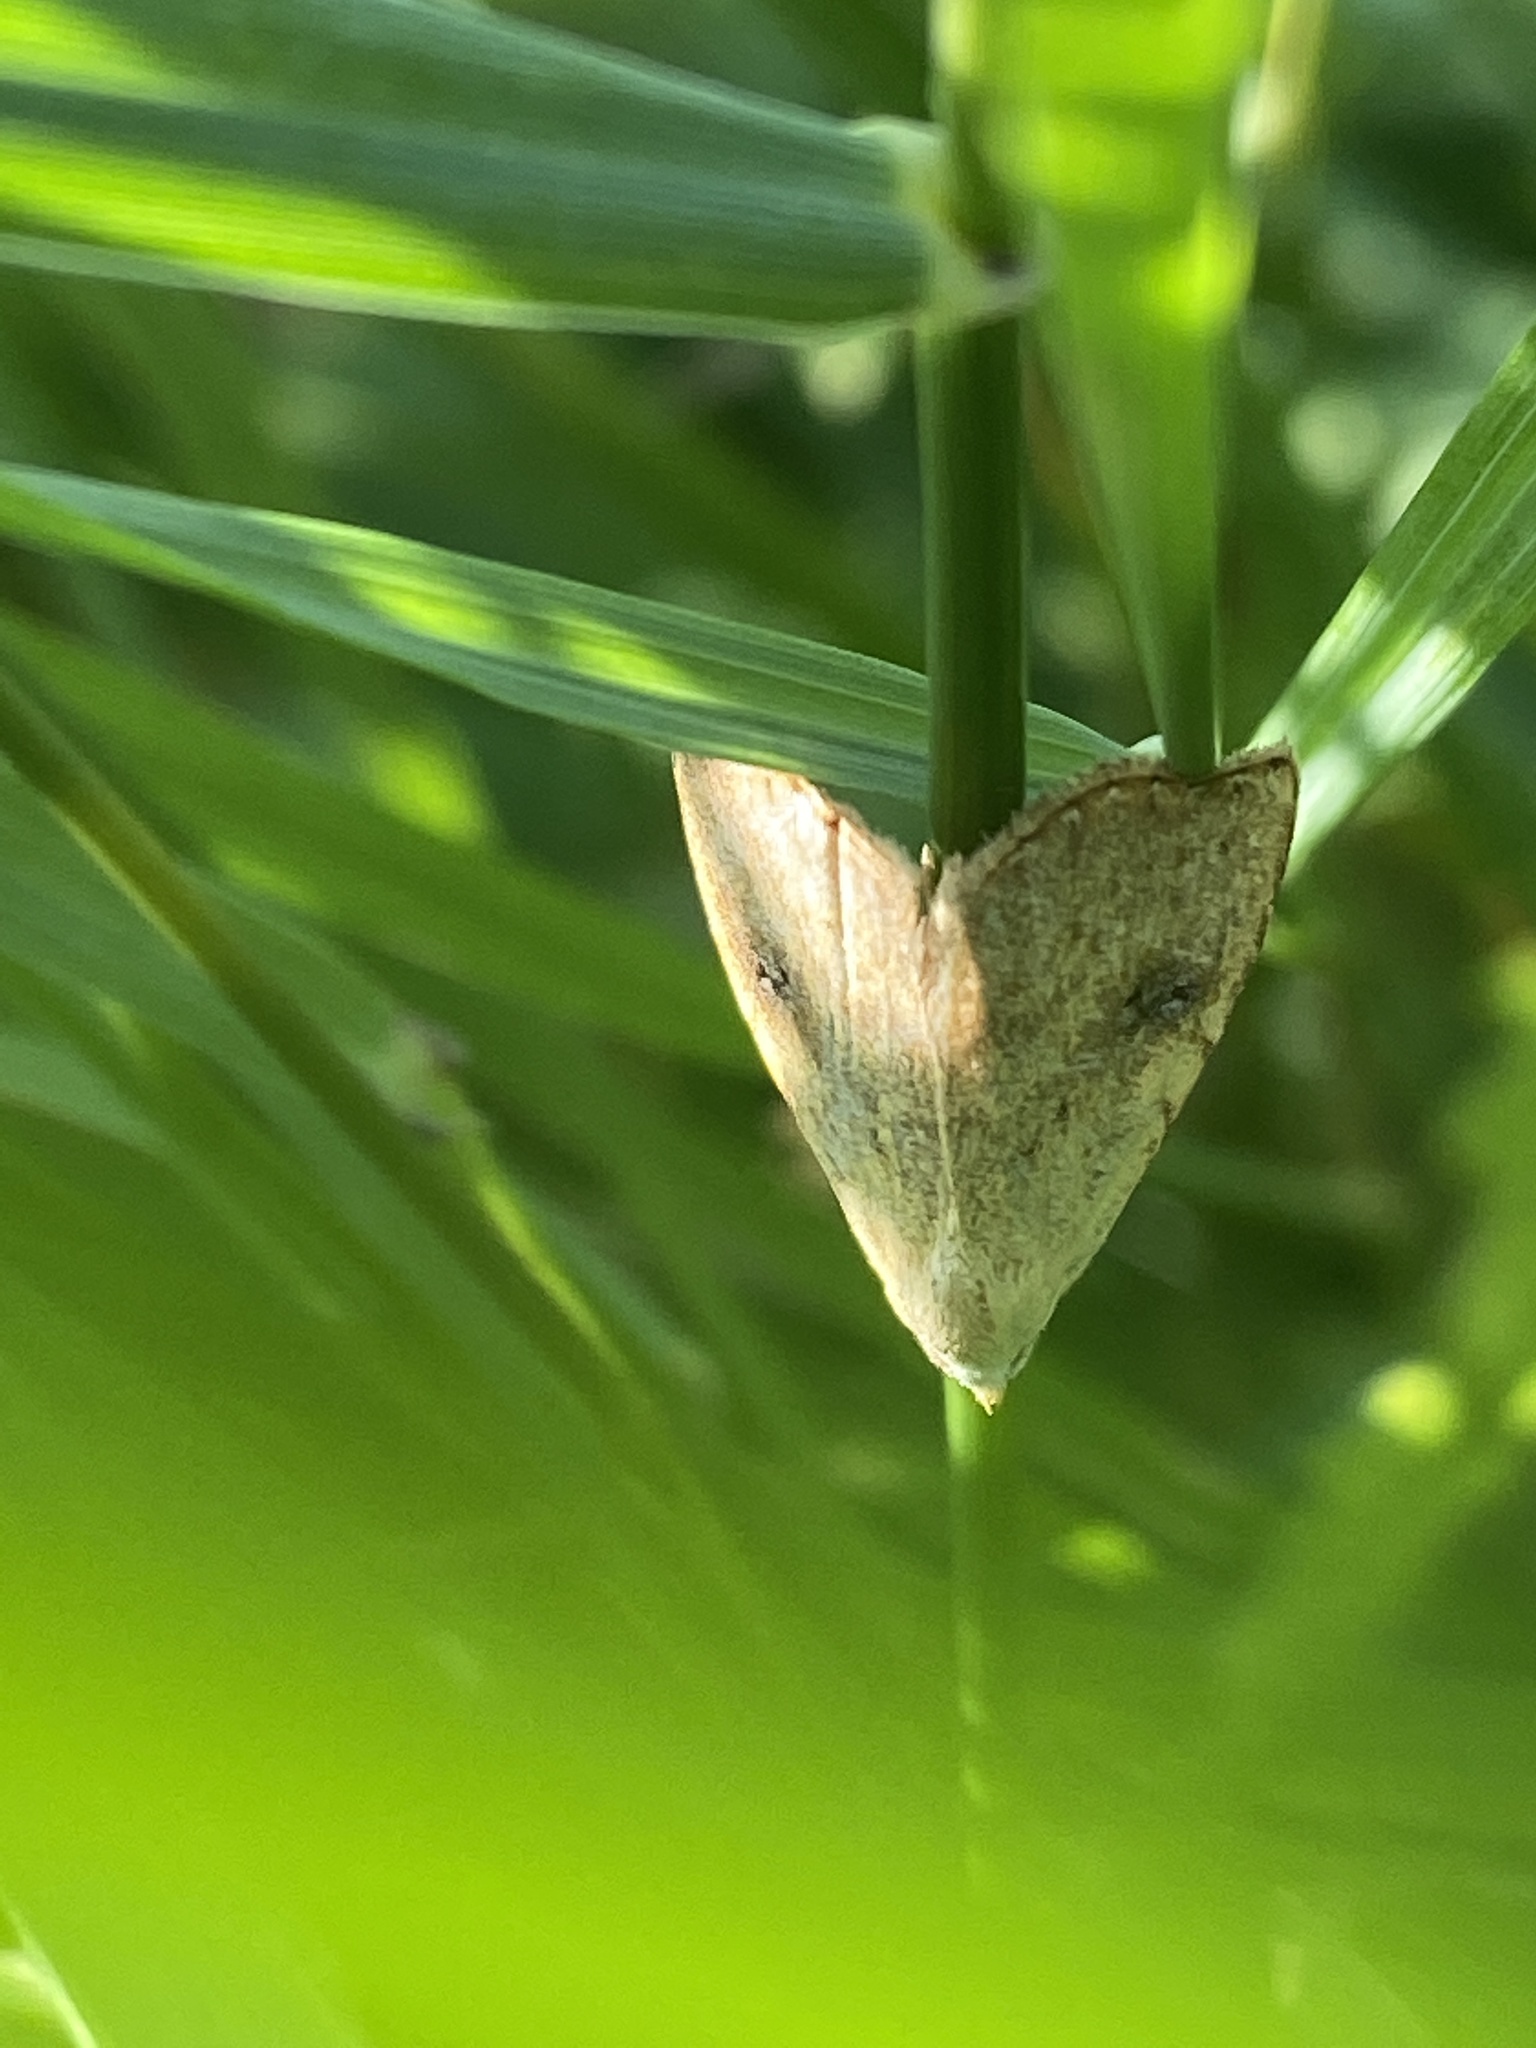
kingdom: Animalia
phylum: Arthropoda
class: Insecta
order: Lepidoptera
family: Erebidae
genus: Rivula
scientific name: Rivula sericealis
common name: Straw dot
